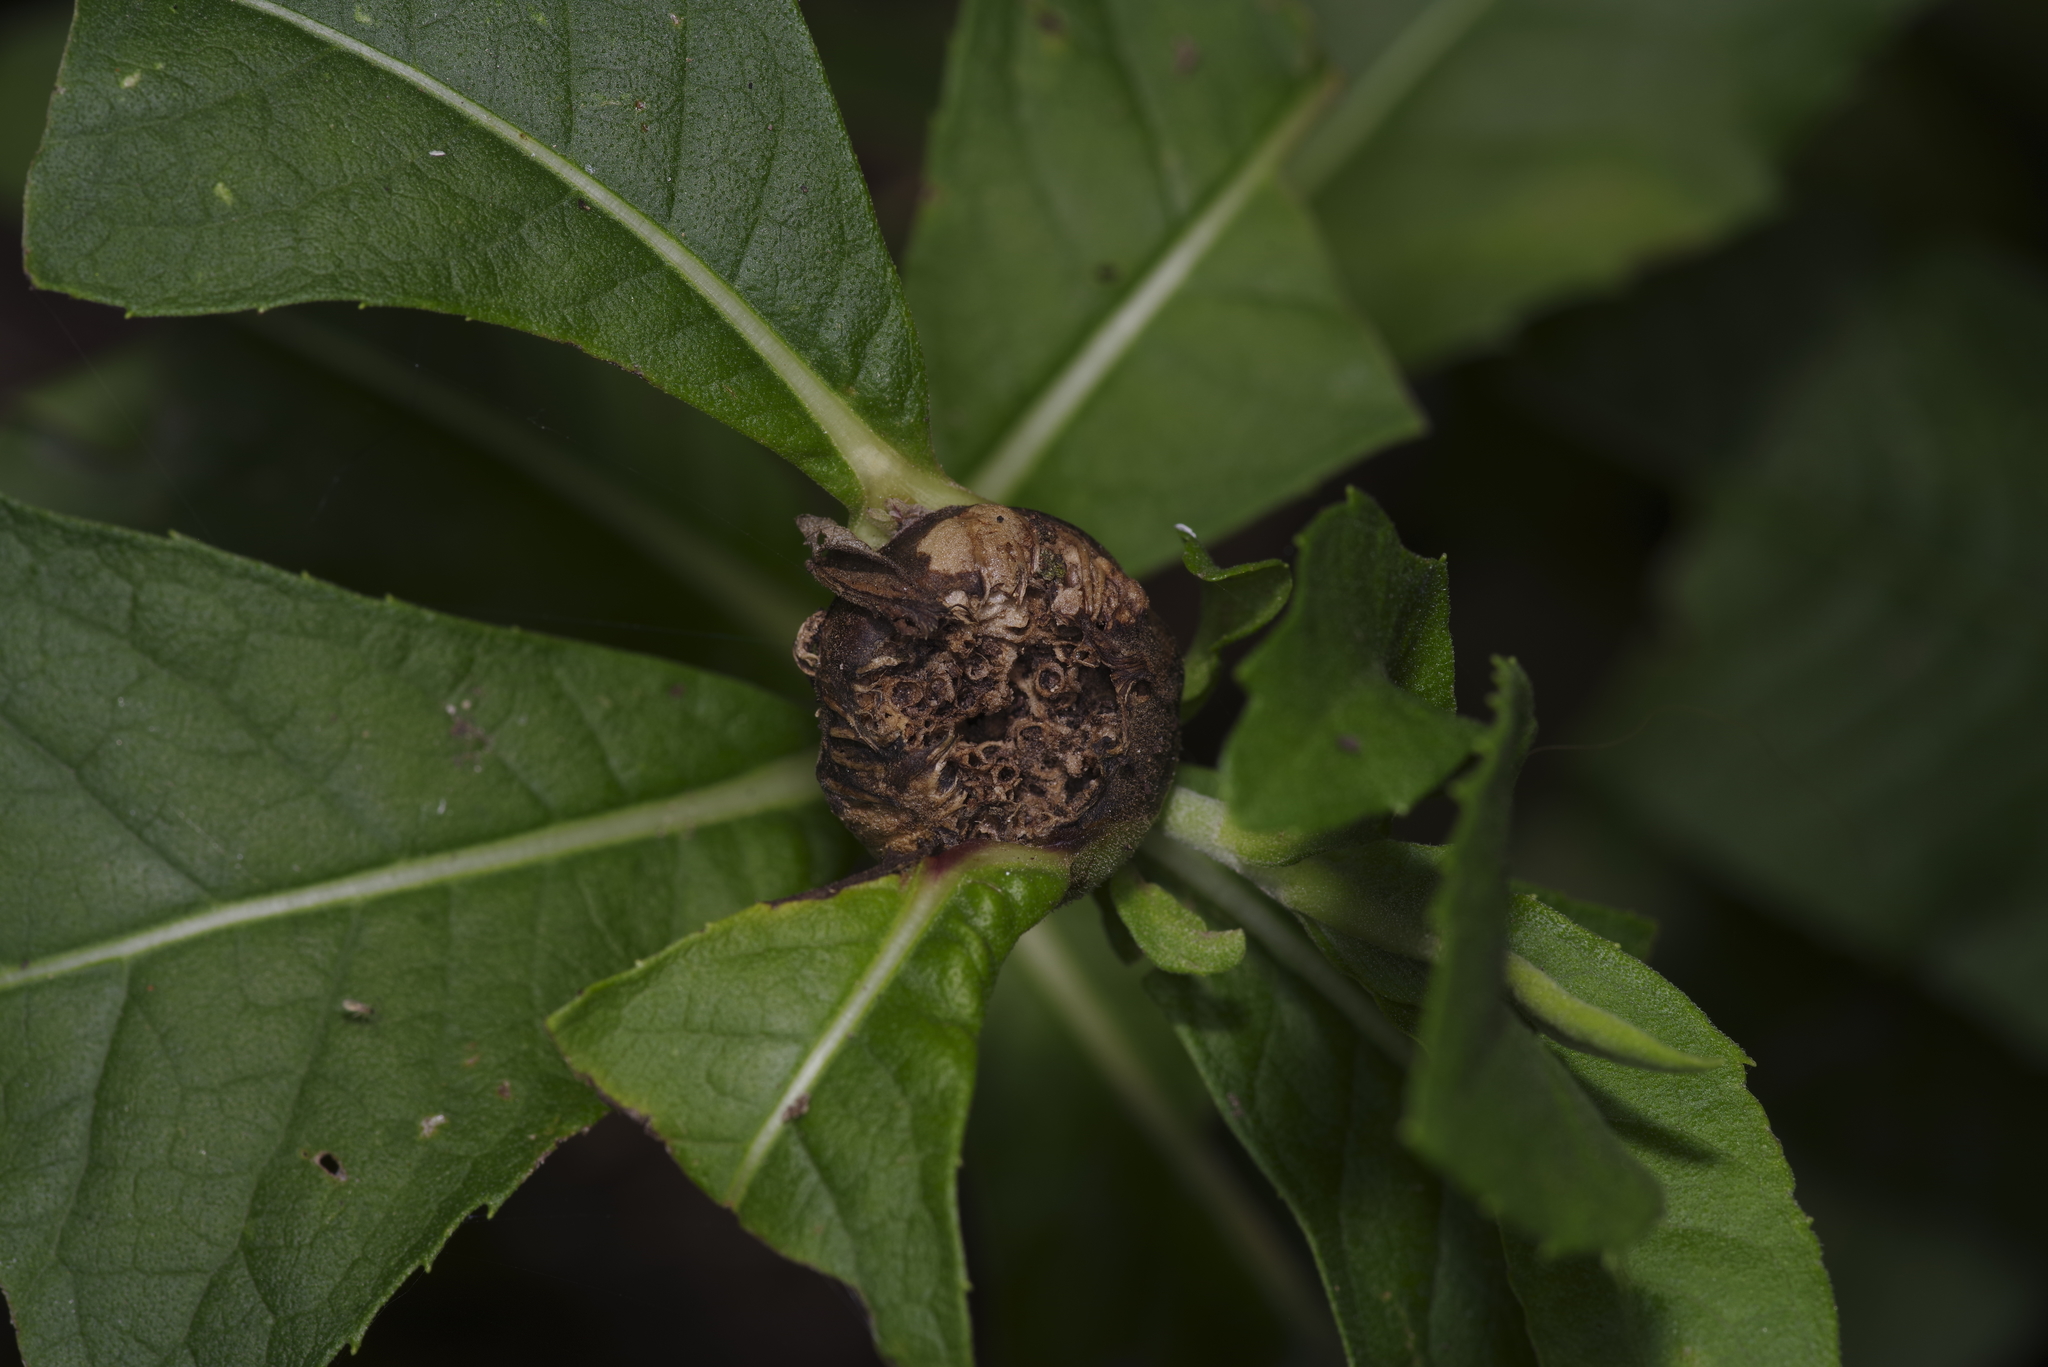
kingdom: Animalia
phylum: Arthropoda
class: Insecta
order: Diptera
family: Cecidomyiidae
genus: Neolasioptera
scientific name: Neolasioptera vernoniae
